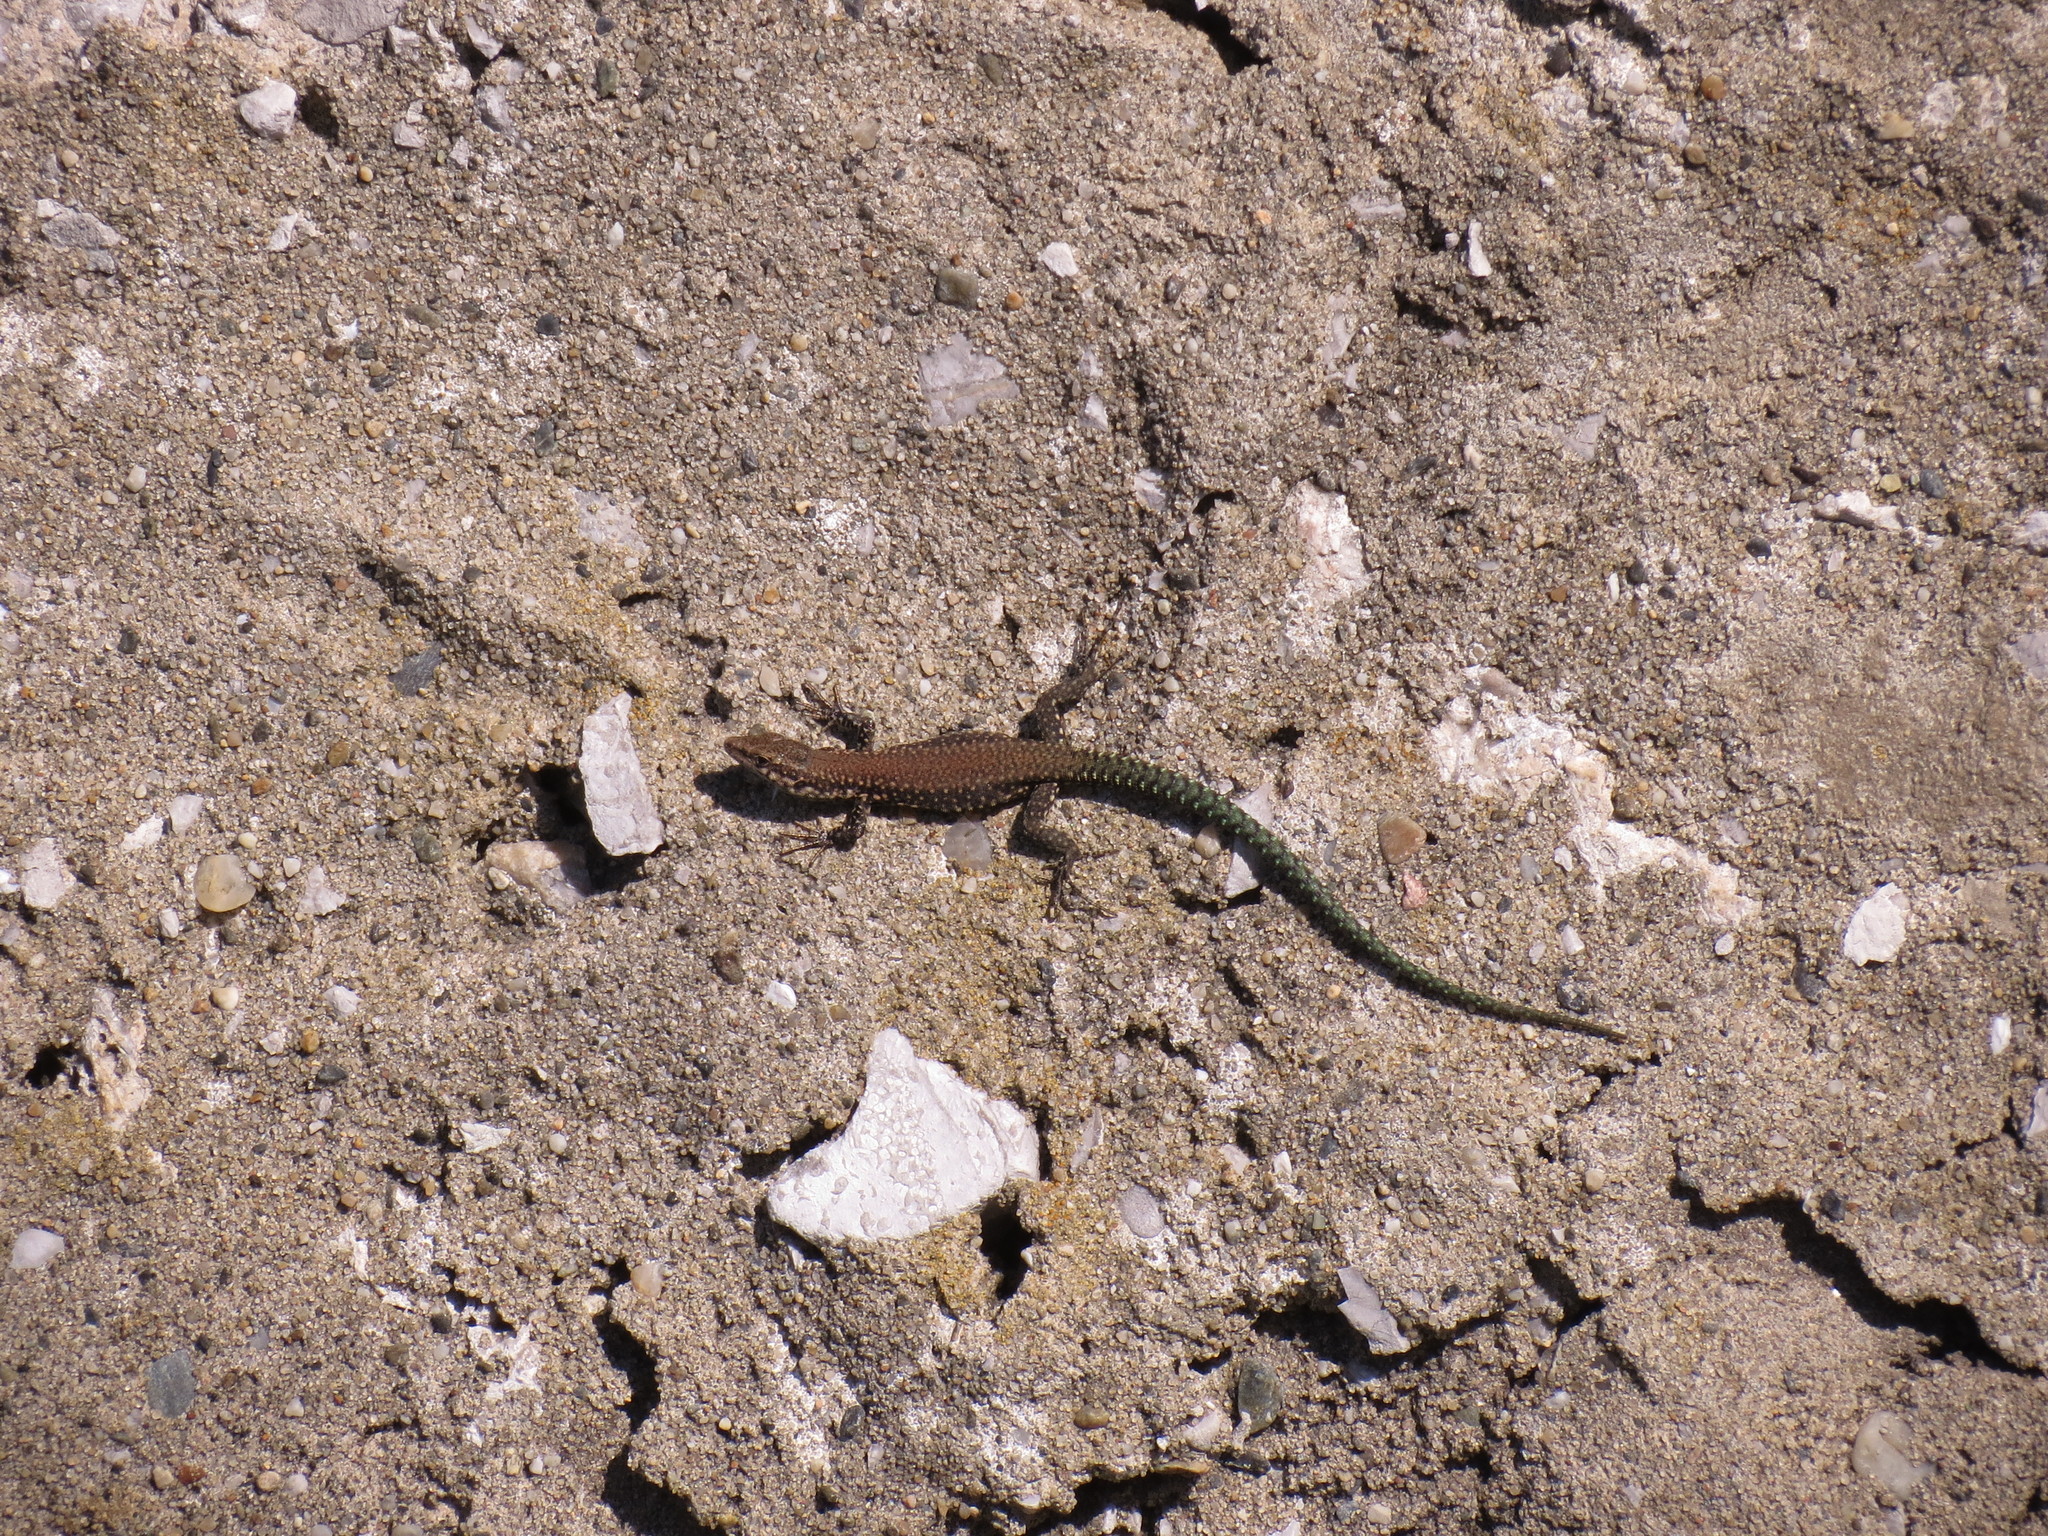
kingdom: Animalia
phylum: Chordata
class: Squamata
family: Lacertidae
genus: Podarcis
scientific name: Podarcis vaucheri
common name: Vaucher's wall lizard
